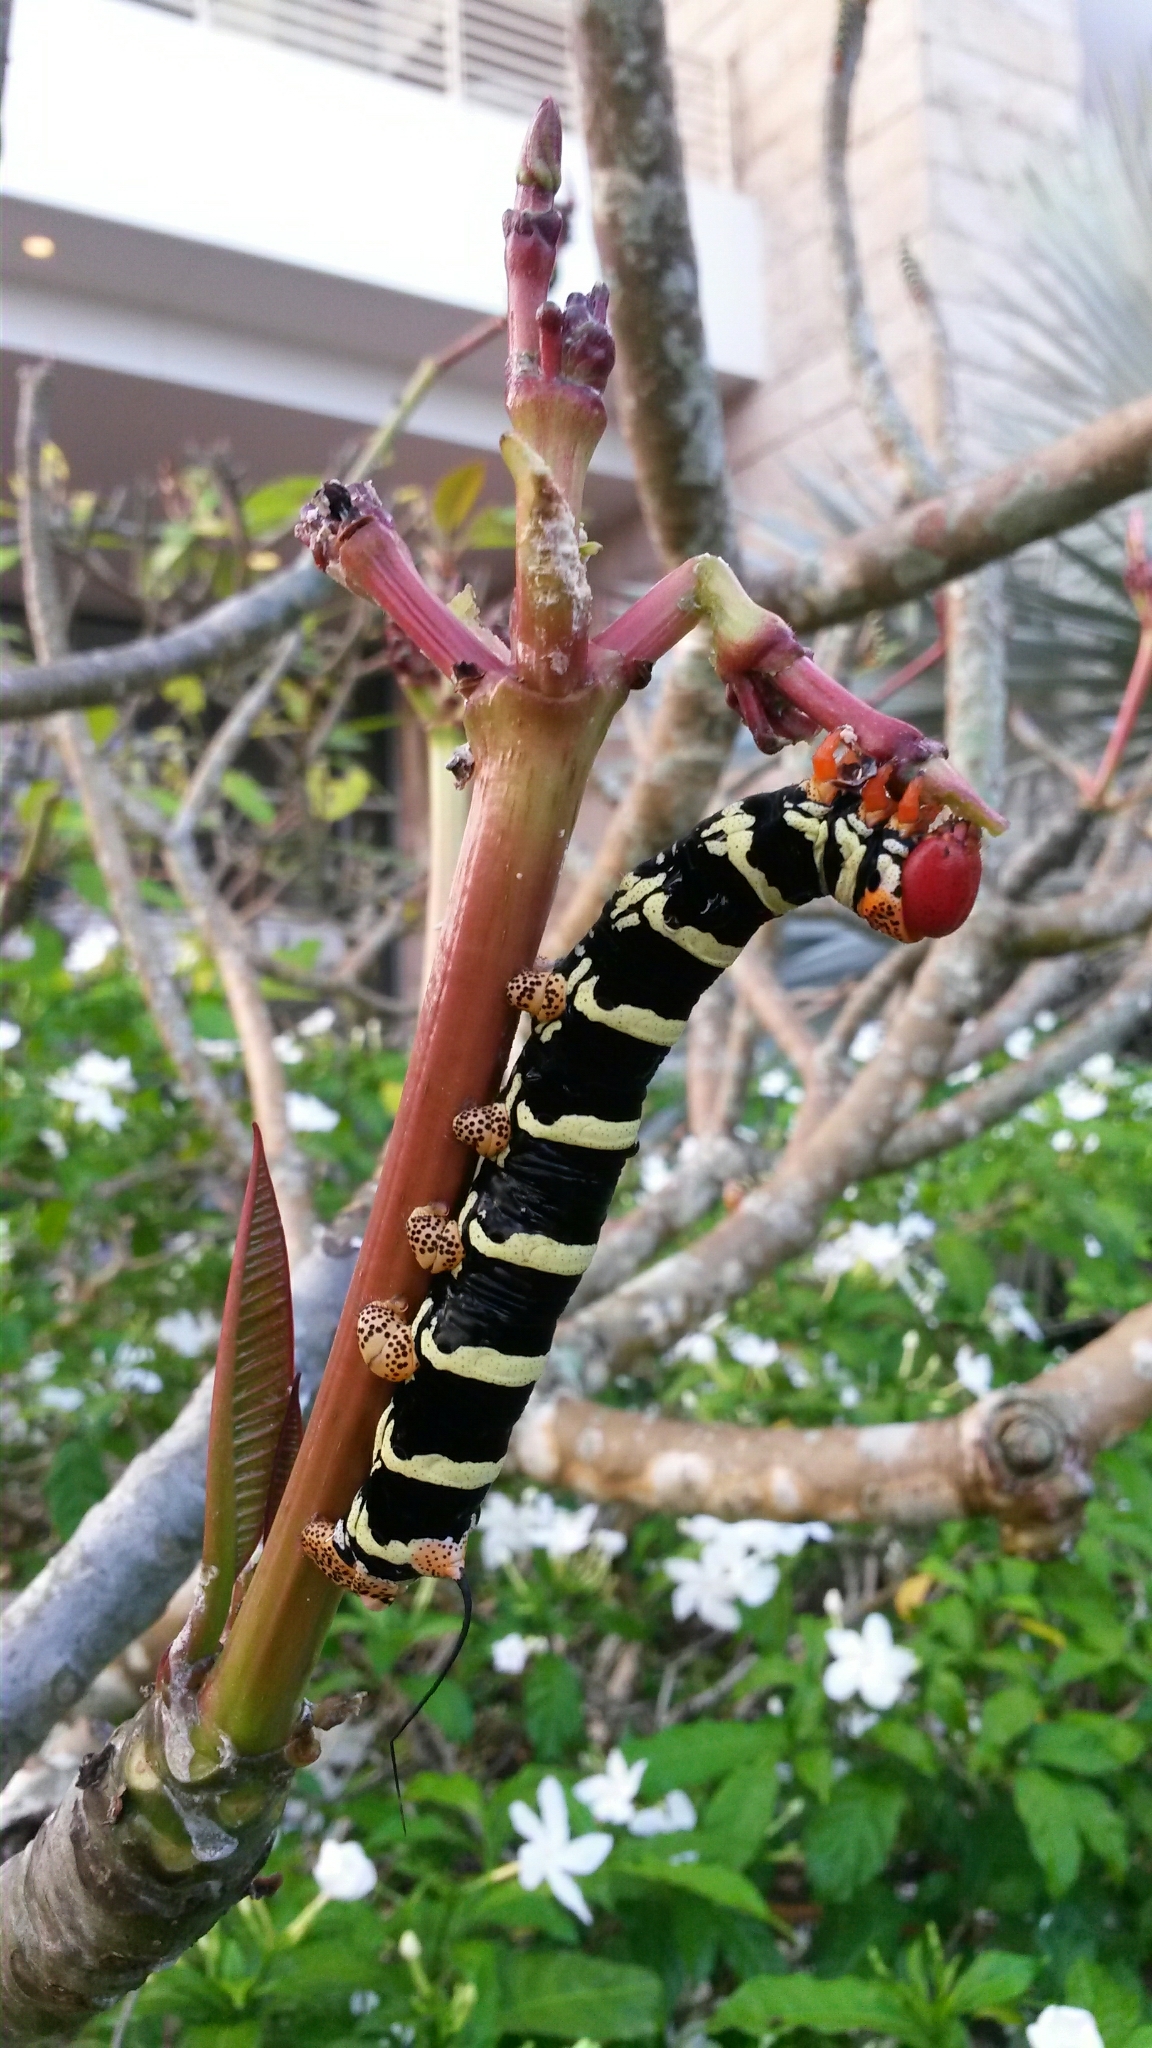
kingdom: Animalia
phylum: Arthropoda
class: Insecta
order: Lepidoptera
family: Sphingidae
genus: Pseudosphinx
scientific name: Pseudosphinx tetrio
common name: Tetrio sphinx
